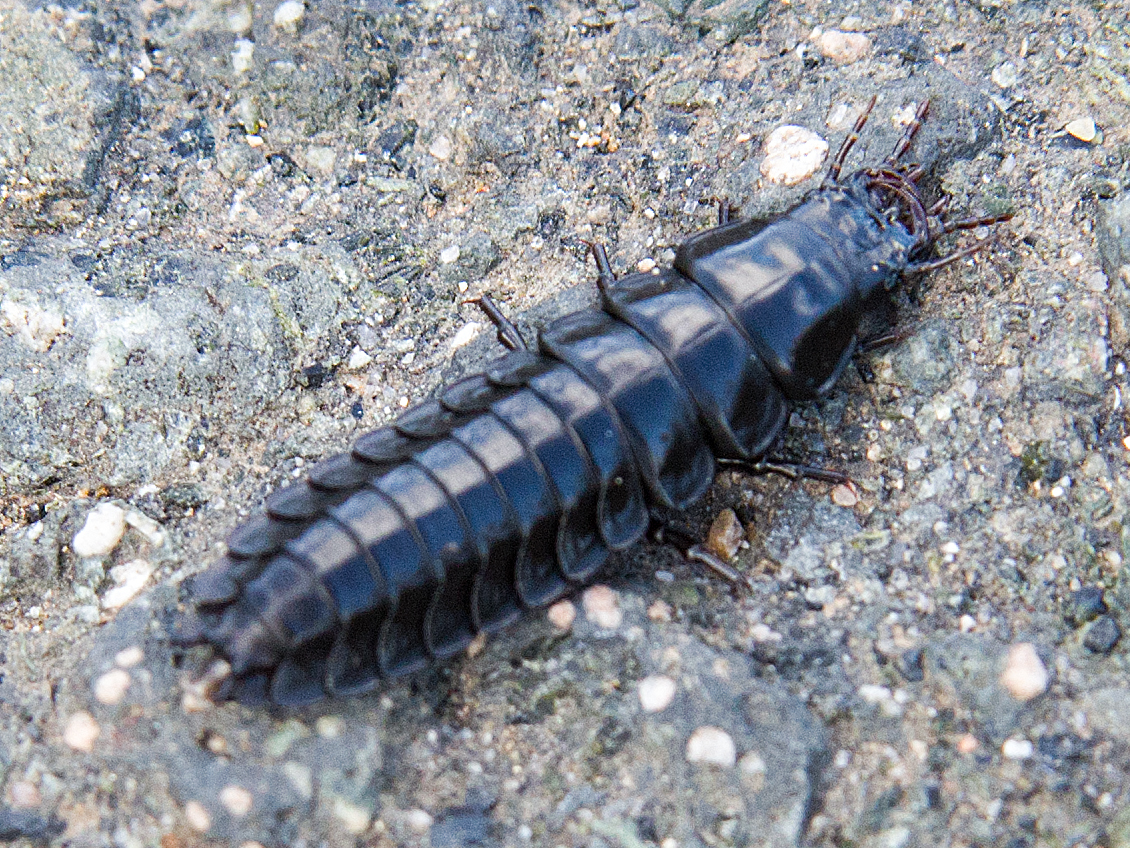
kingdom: Animalia
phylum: Arthropoda
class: Insecta
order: Coleoptera
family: Carabidae
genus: Carabus
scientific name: Carabus
